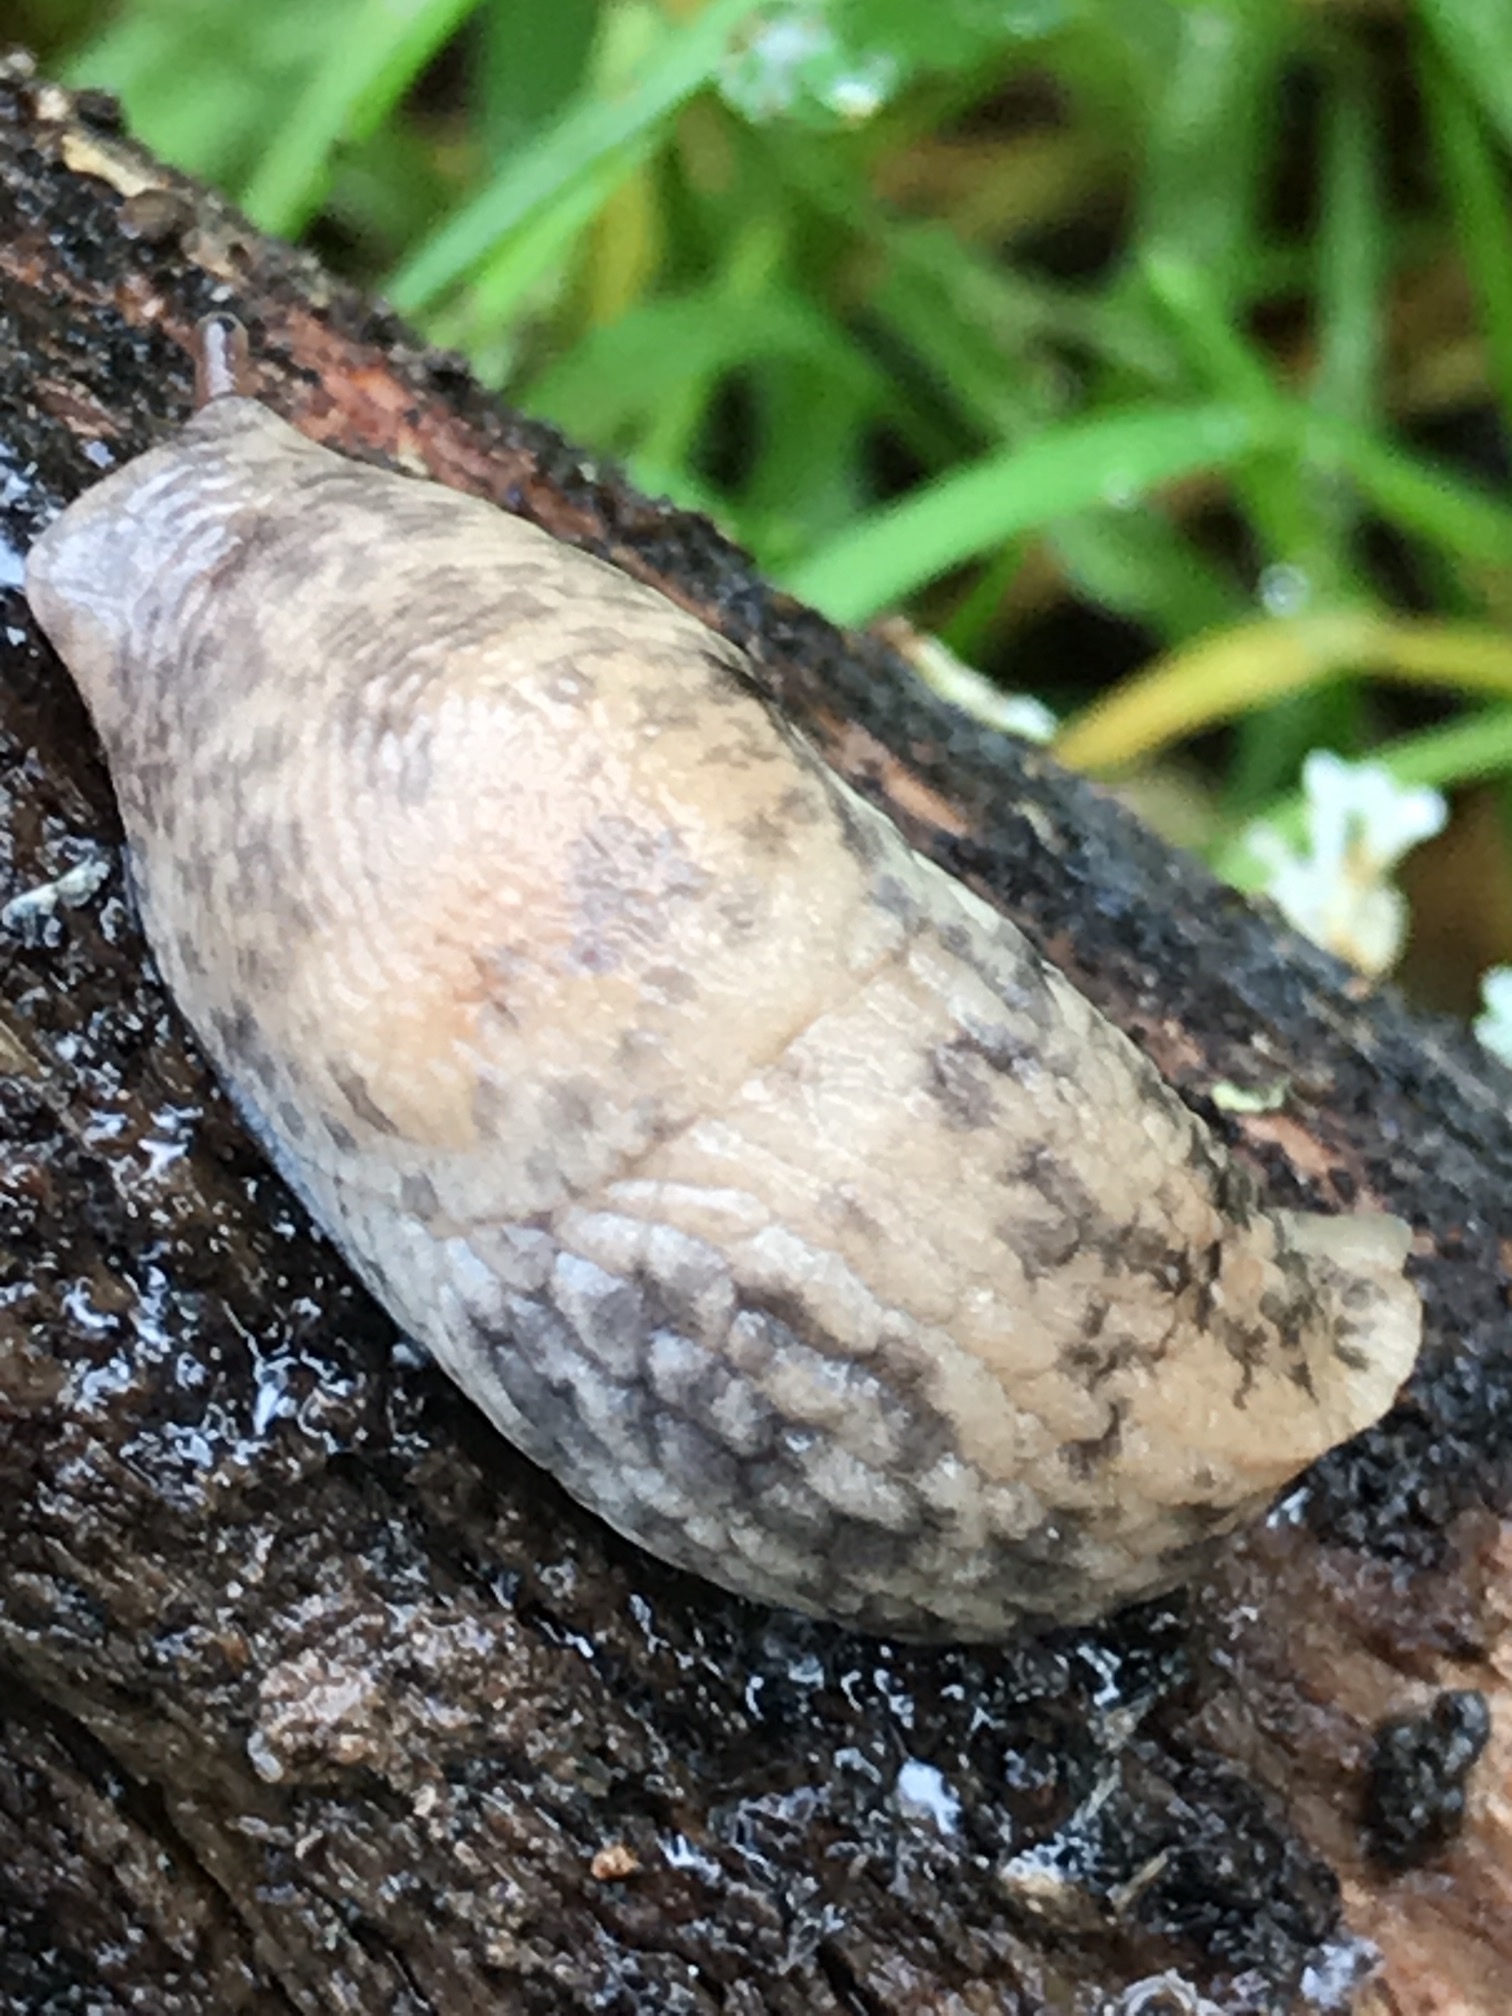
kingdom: Animalia
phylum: Mollusca
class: Gastropoda
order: Stylommatophora
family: Agriolimacidae
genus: Deroceras
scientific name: Deroceras reticulatum
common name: Gray field slug
